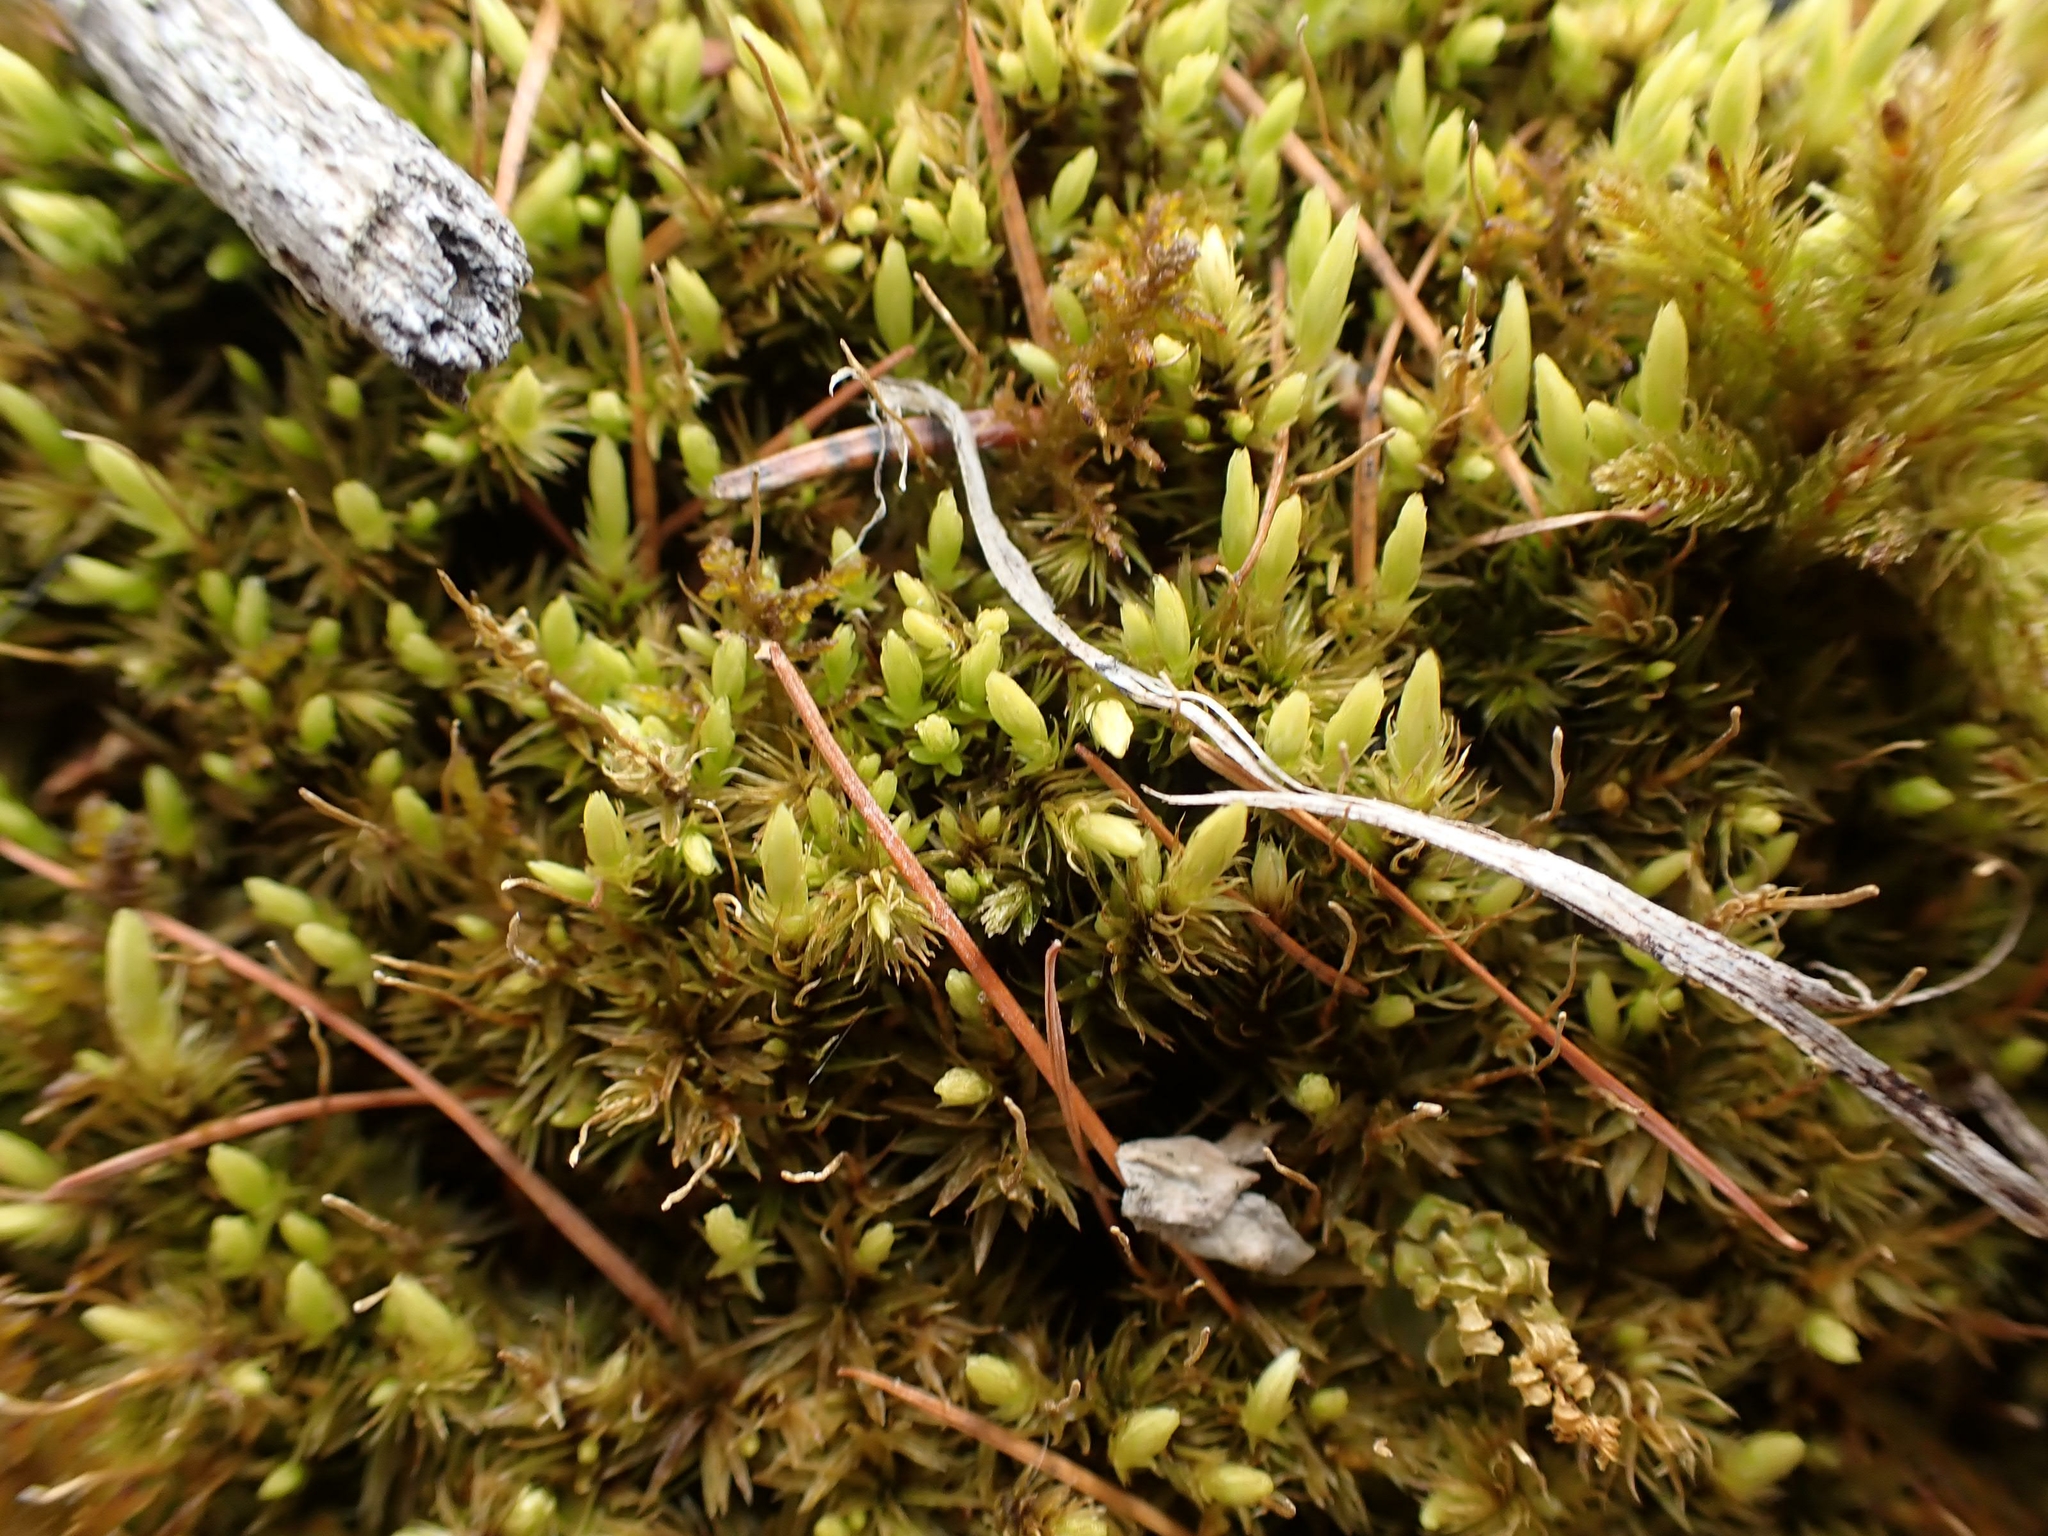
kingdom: Plantae
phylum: Bryophyta
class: Bryopsida
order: Aulacomniales
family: Aulacomniaceae
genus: Aulacomnium
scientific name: Aulacomnium palustre
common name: Bog groove-moss
